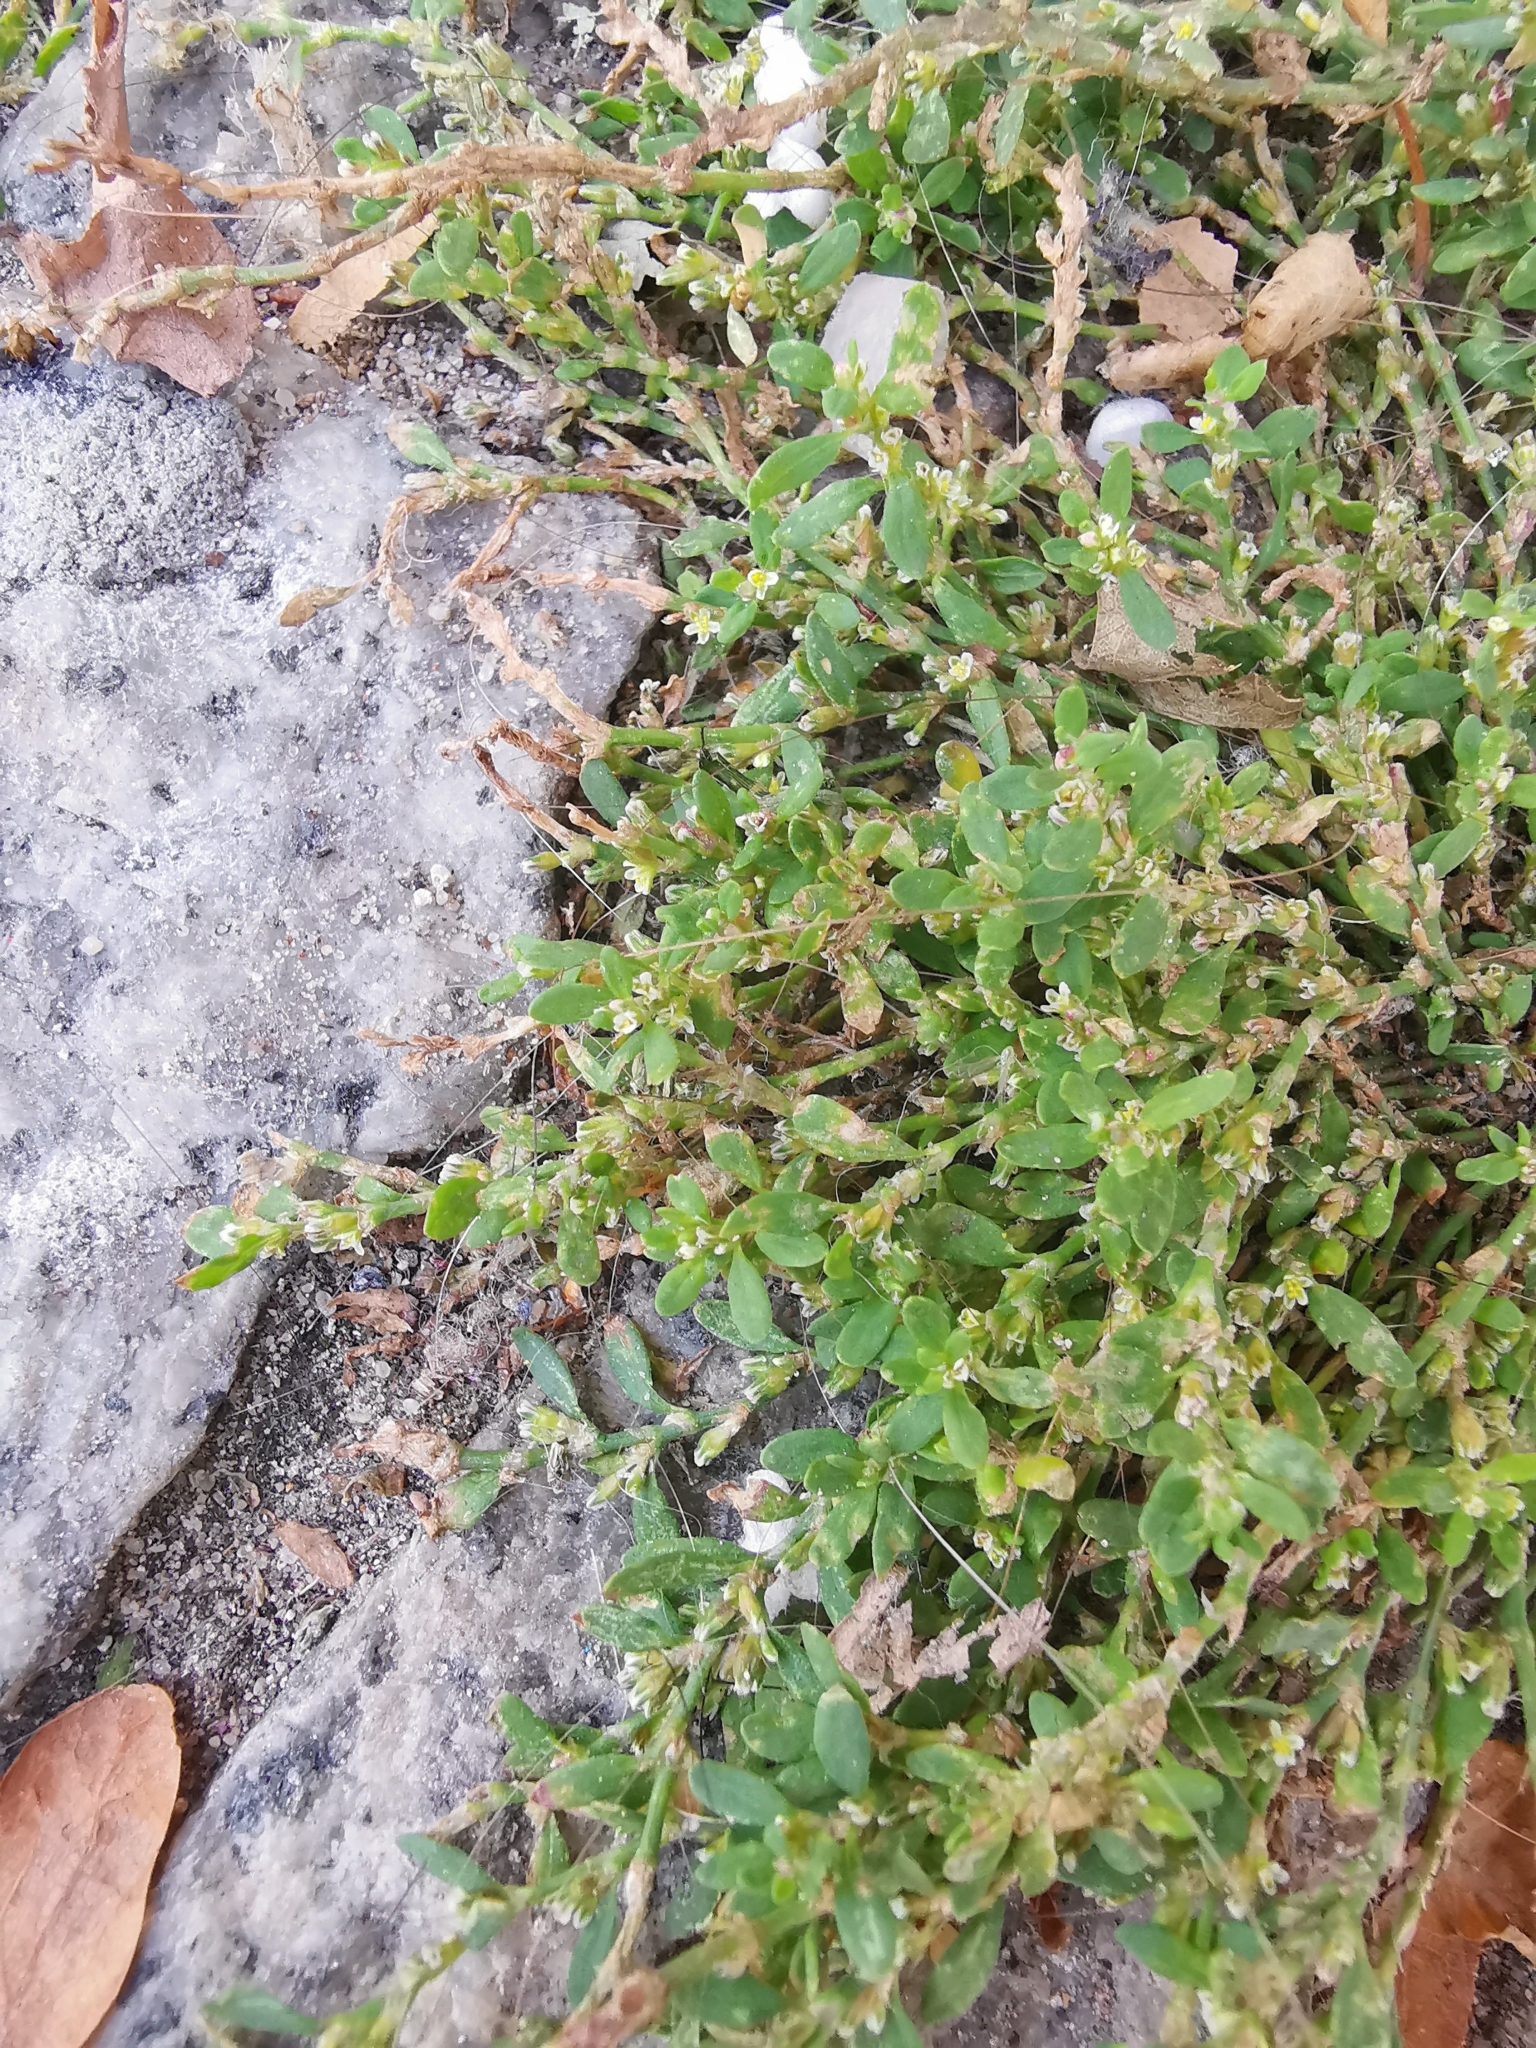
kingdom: Plantae
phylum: Tracheophyta
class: Magnoliopsida
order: Caryophyllales
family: Polygonaceae
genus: Polygonum
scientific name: Polygonum aviculare
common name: Prostrate knotweed
